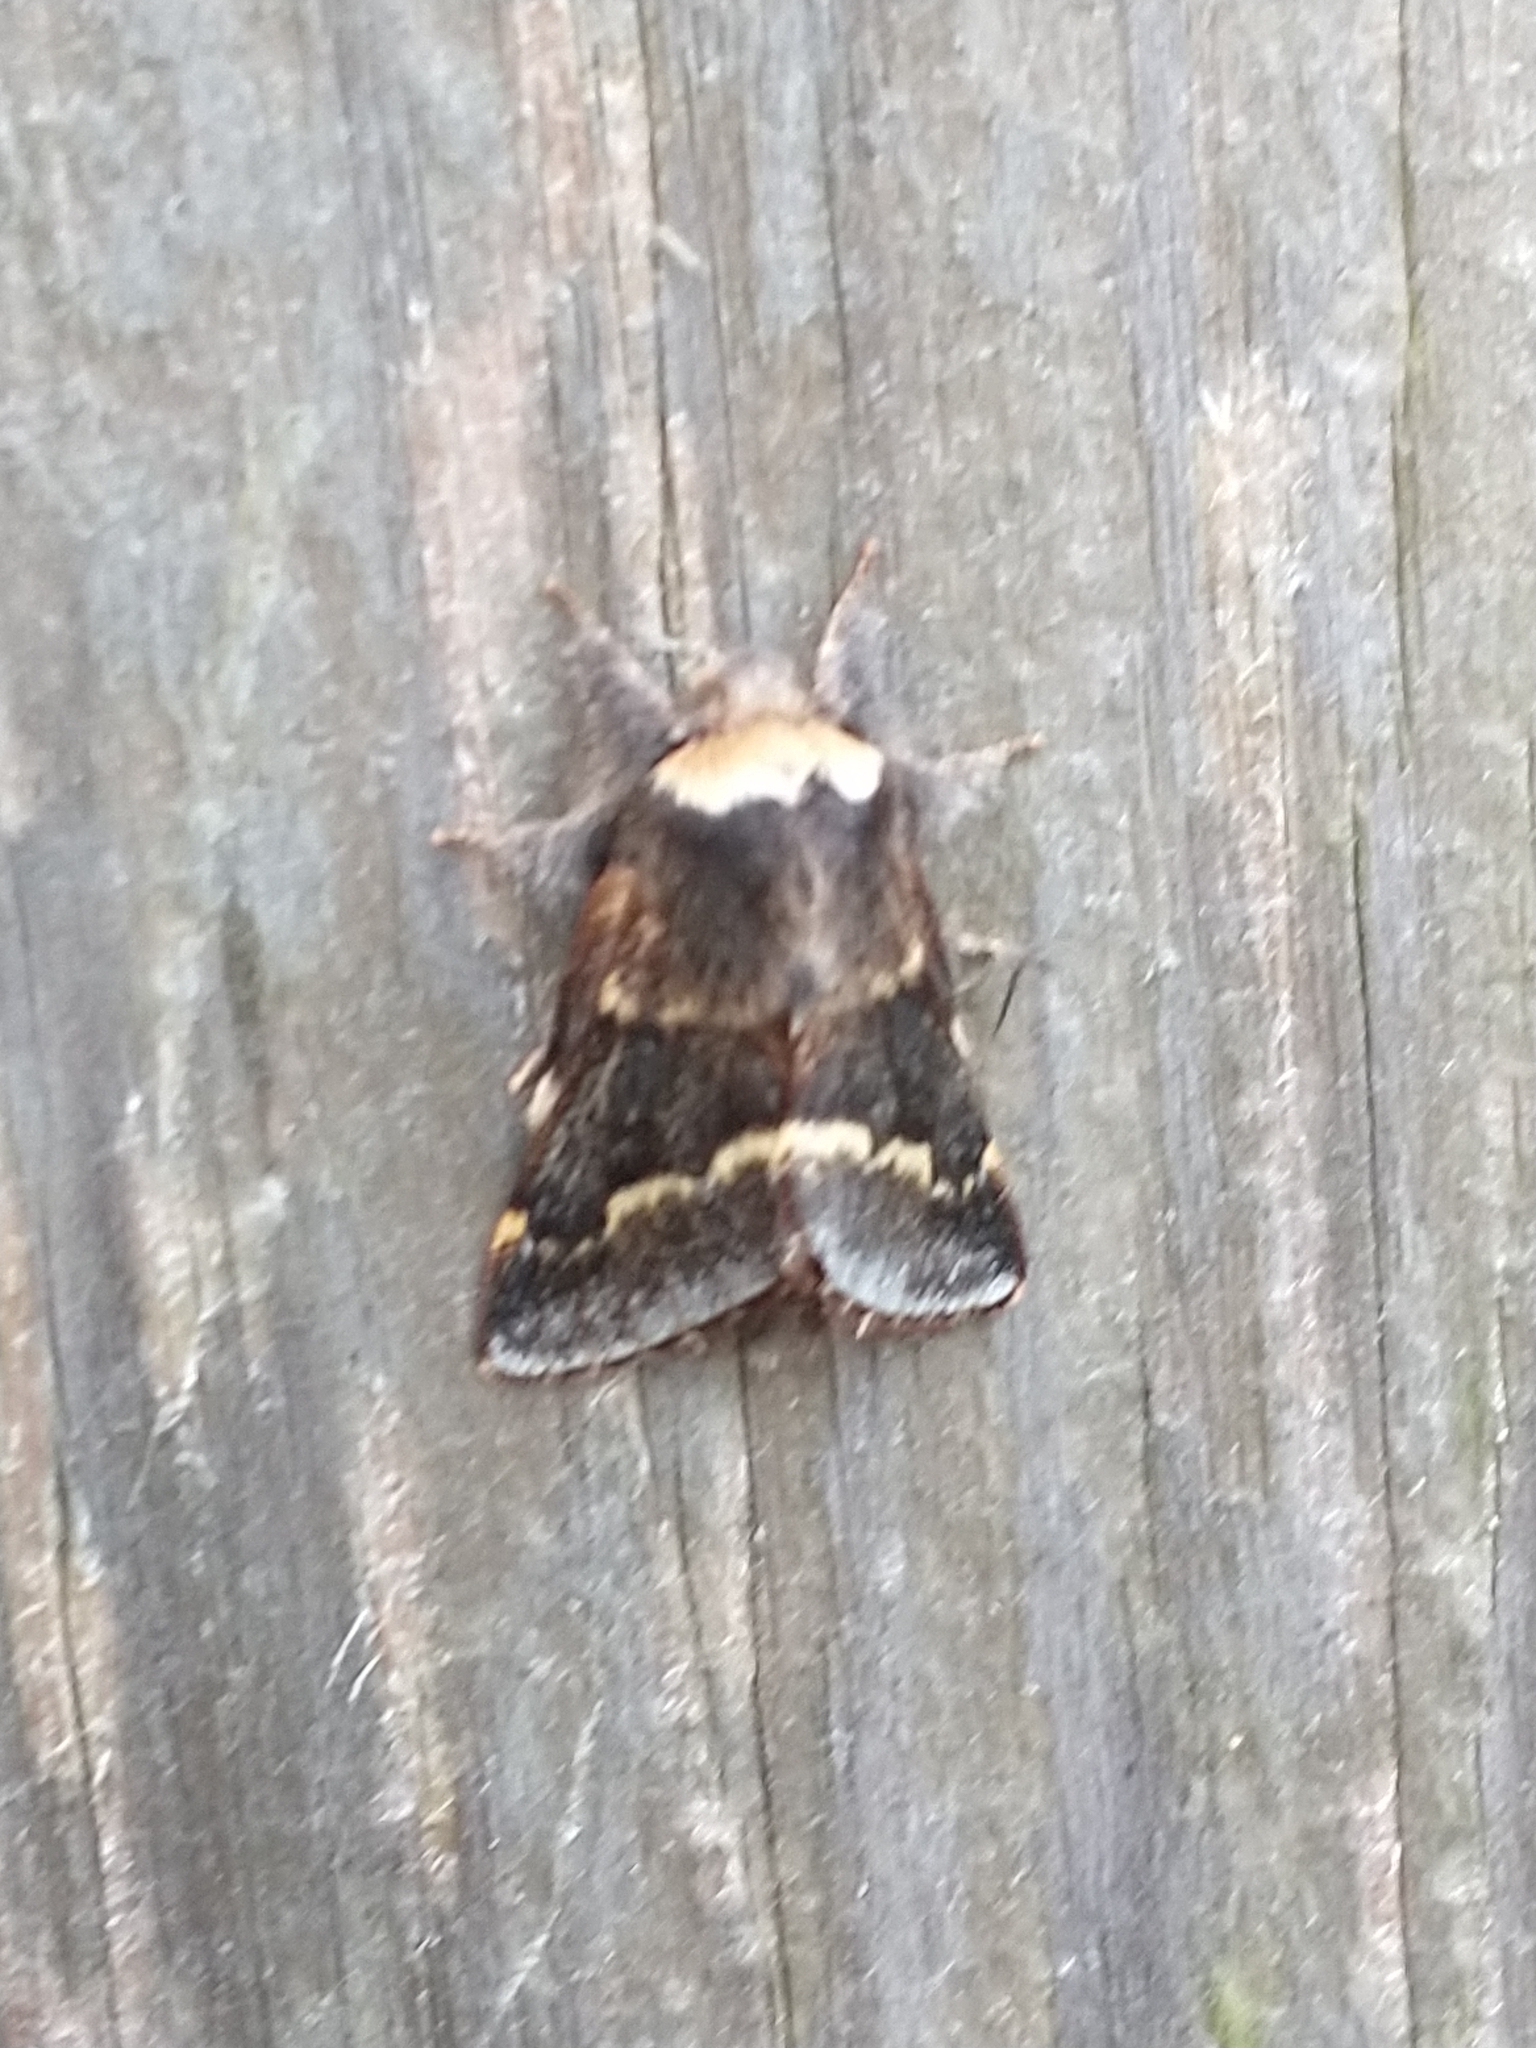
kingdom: Animalia
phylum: Arthropoda
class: Insecta
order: Lepidoptera
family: Lasiocampidae
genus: Poecilocampa
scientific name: Poecilocampa populi
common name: December moth
